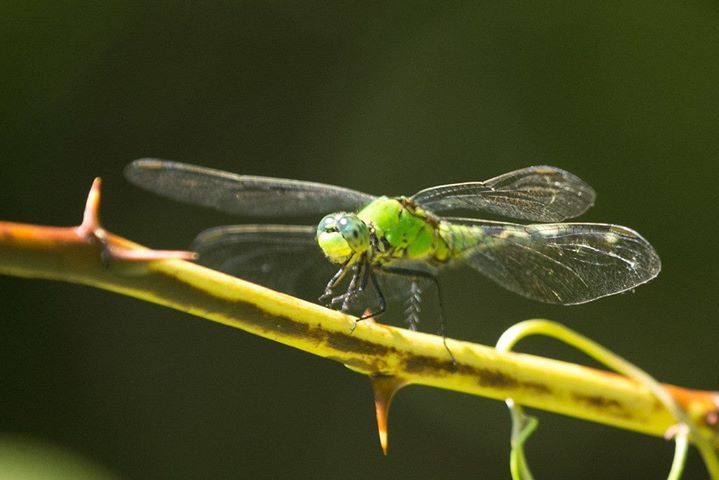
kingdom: Animalia
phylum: Arthropoda
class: Insecta
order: Odonata
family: Libellulidae
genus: Erythemis
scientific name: Erythemis simplicicollis
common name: Eastern pondhawk
